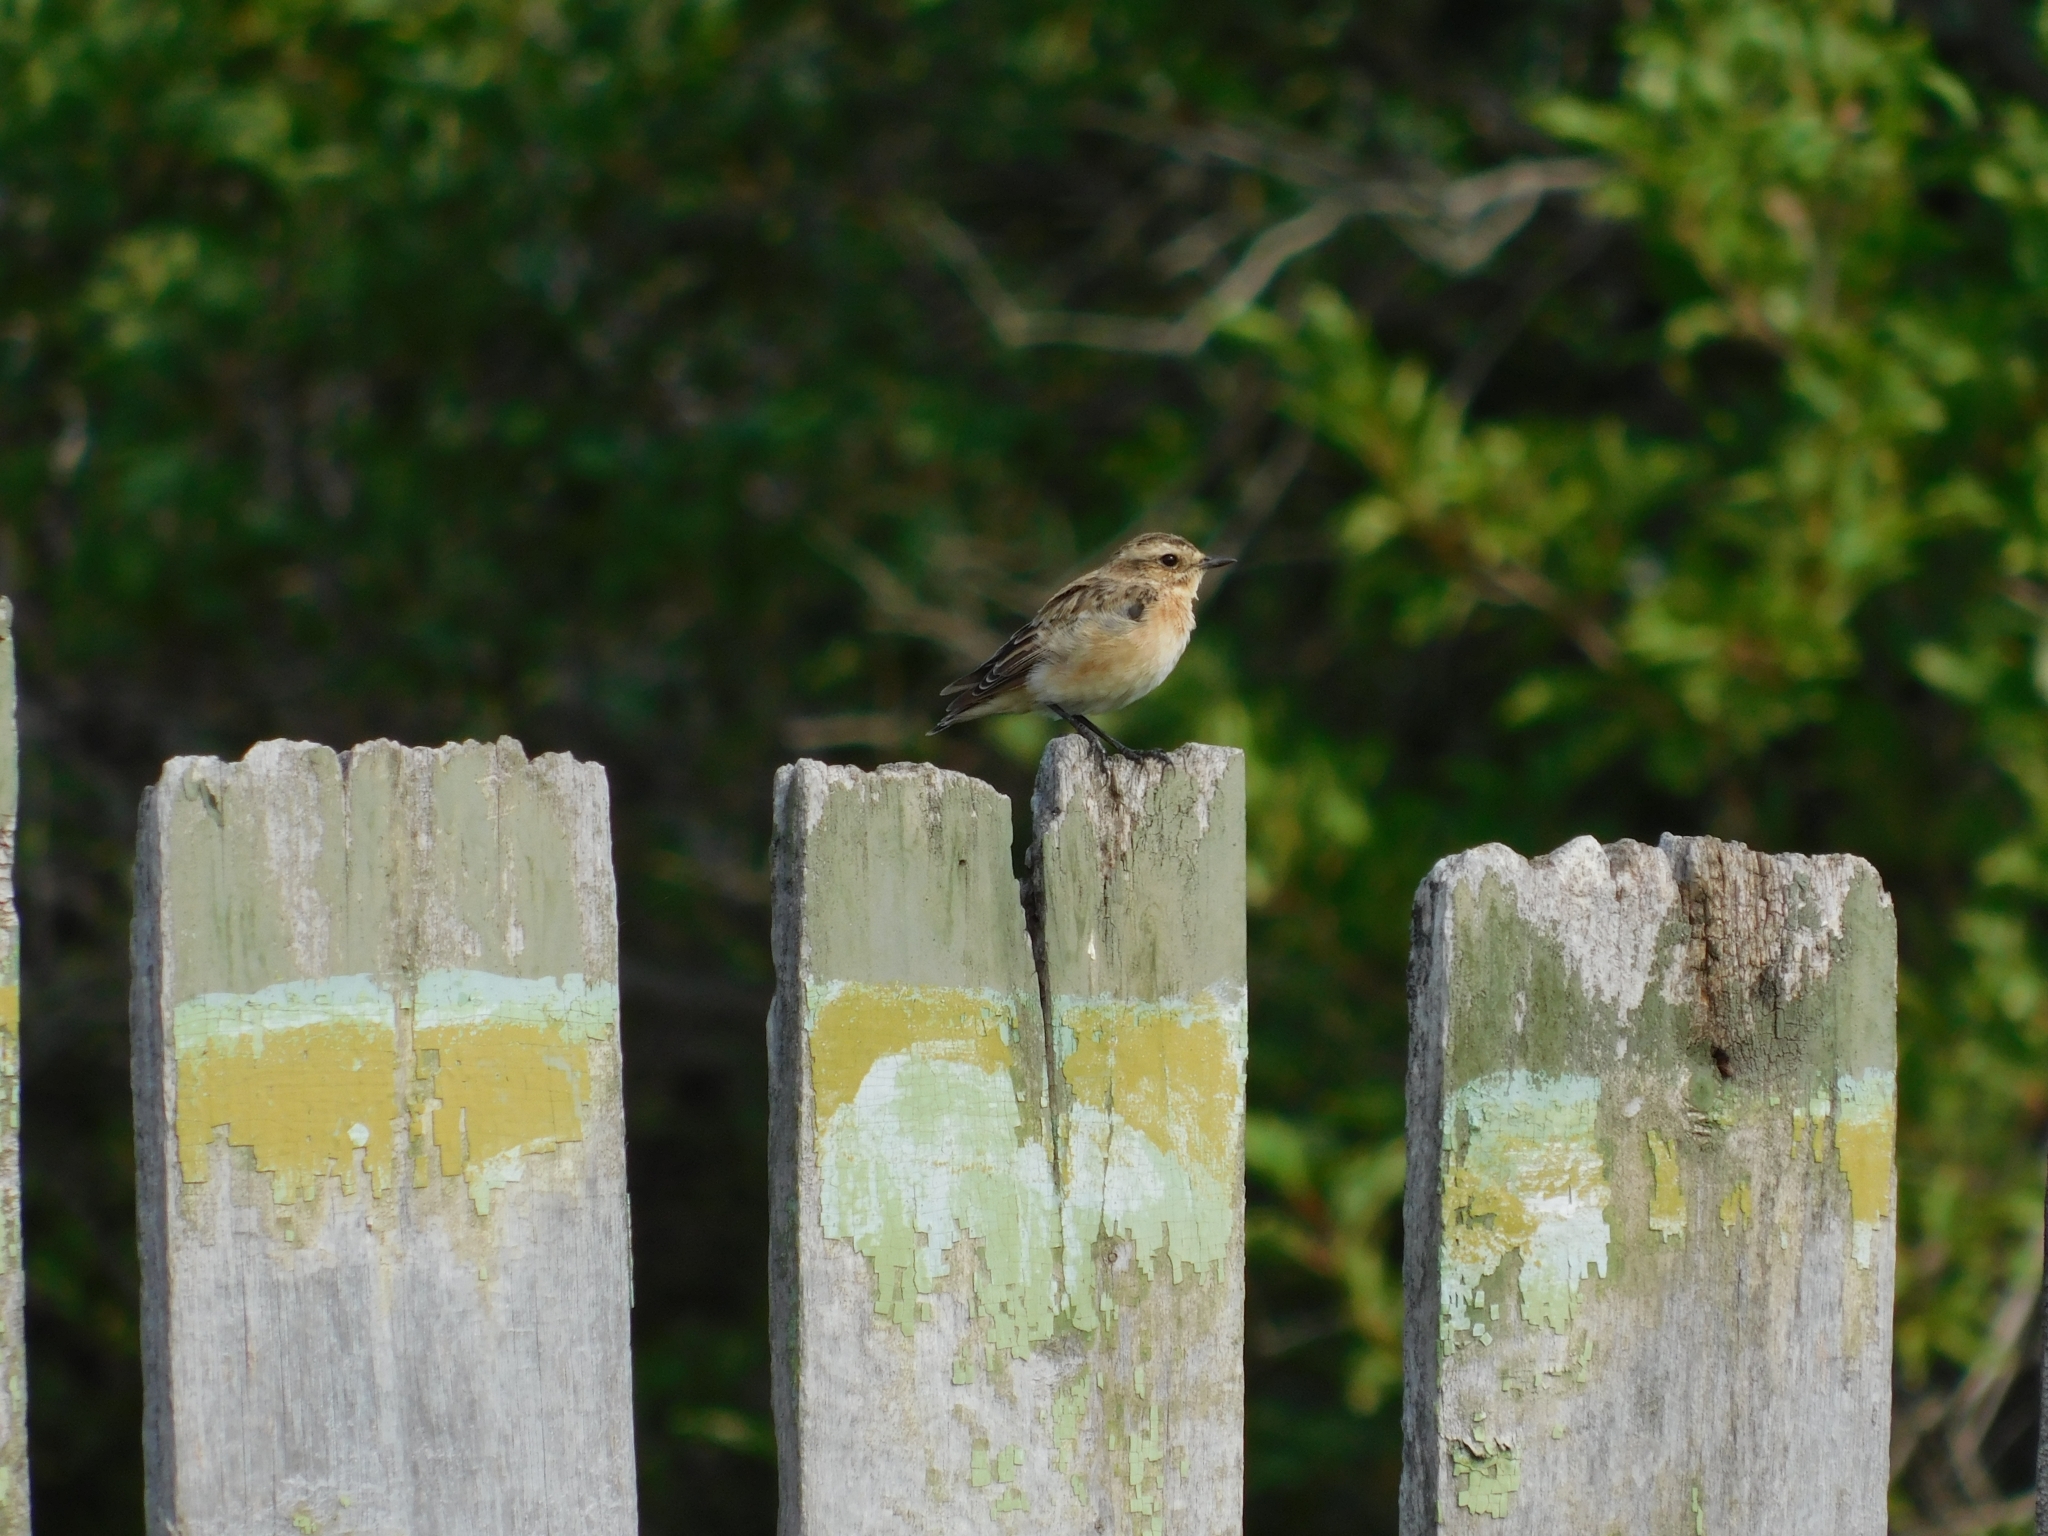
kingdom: Animalia
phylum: Chordata
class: Aves
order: Passeriformes
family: Muscicapidae
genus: Saxicola
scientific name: Saxicola rubetra
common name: Whinchat
